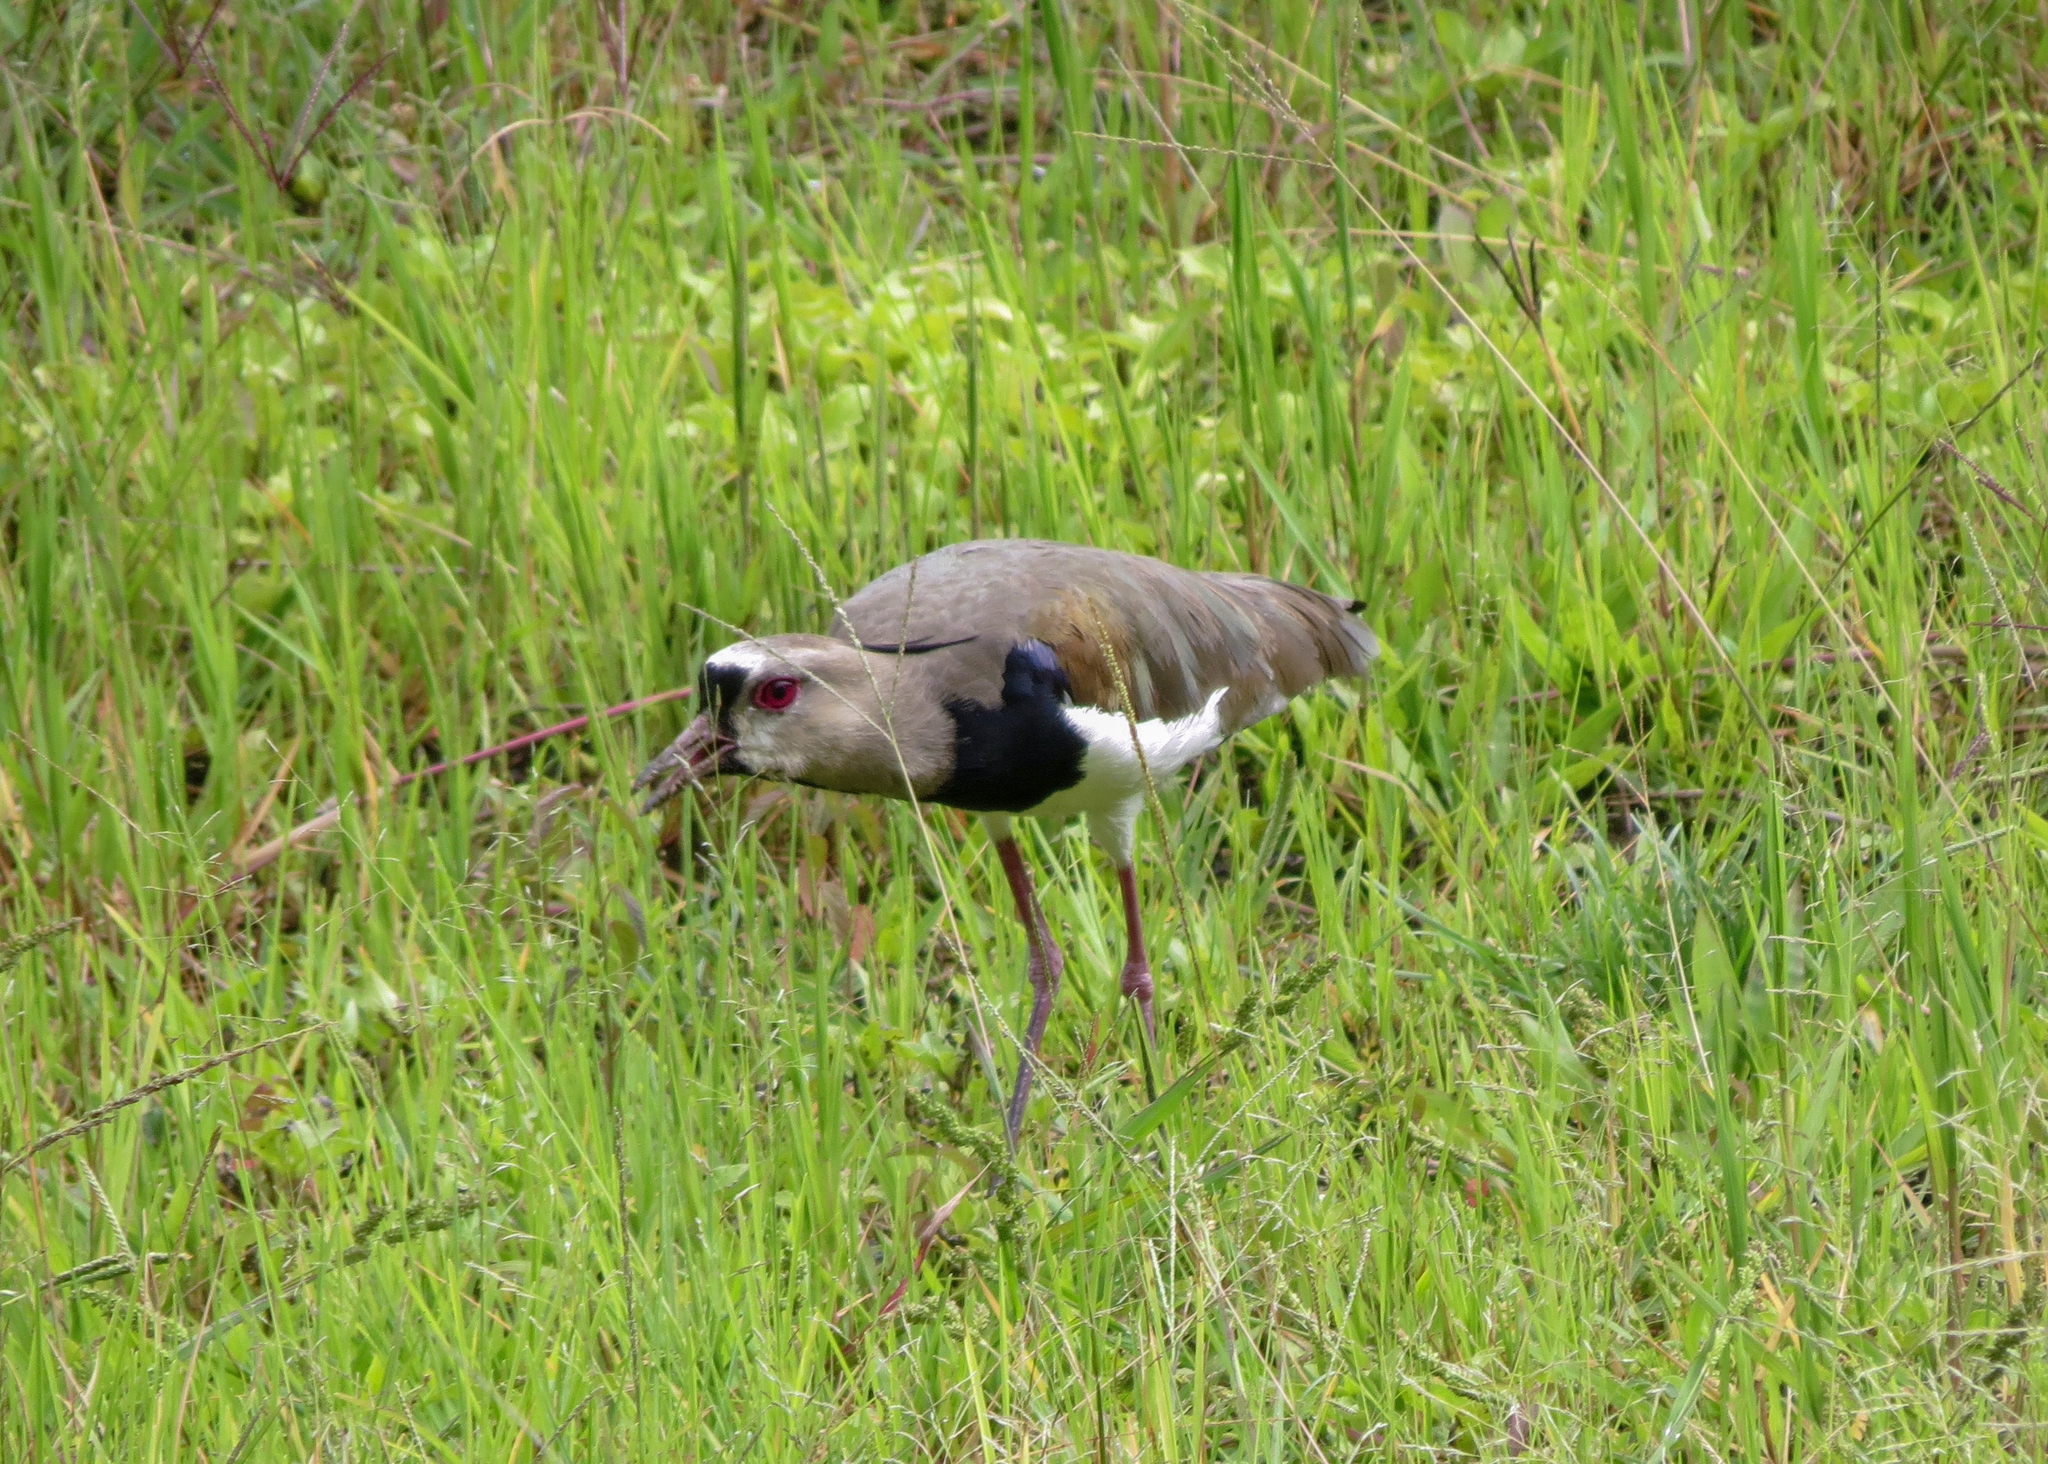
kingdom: Animalia
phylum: Chordata
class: Aves
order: Charadriiformes
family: Charadriidae
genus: Vanellus
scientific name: Vanellus chilensis
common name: Southern lapwing
